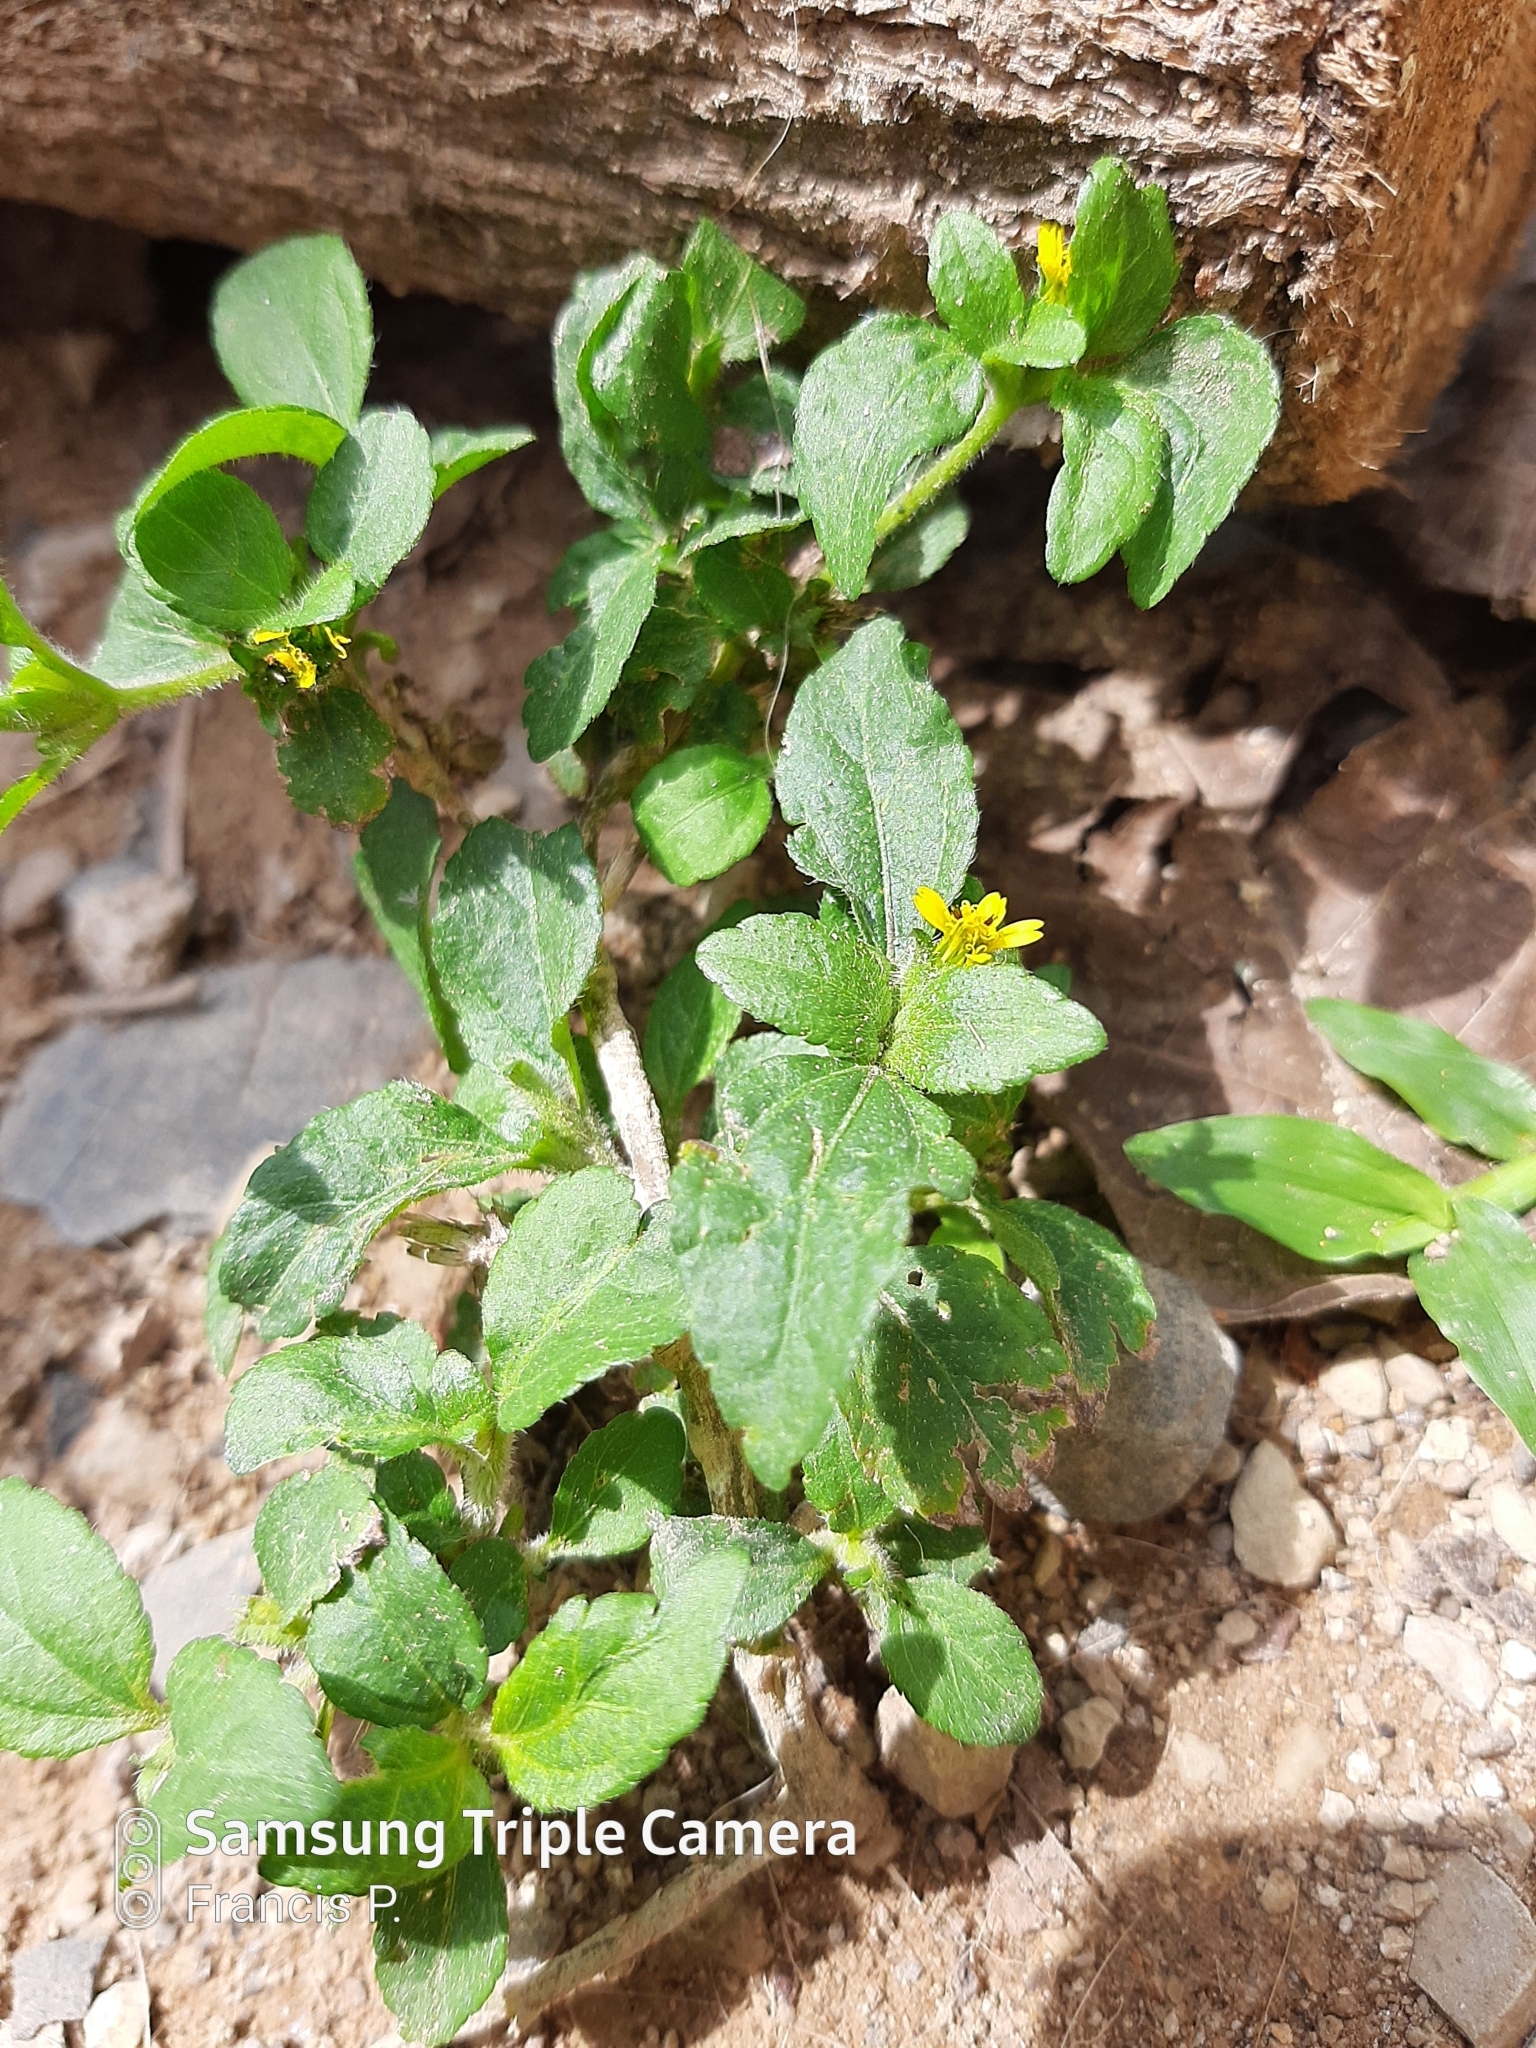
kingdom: Plantae
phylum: Tracheophyta
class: Magnoliopsida
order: Asterales
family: Asteraceae
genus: Synedrella
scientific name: Synedrella nodiflora
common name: Nodeweed
